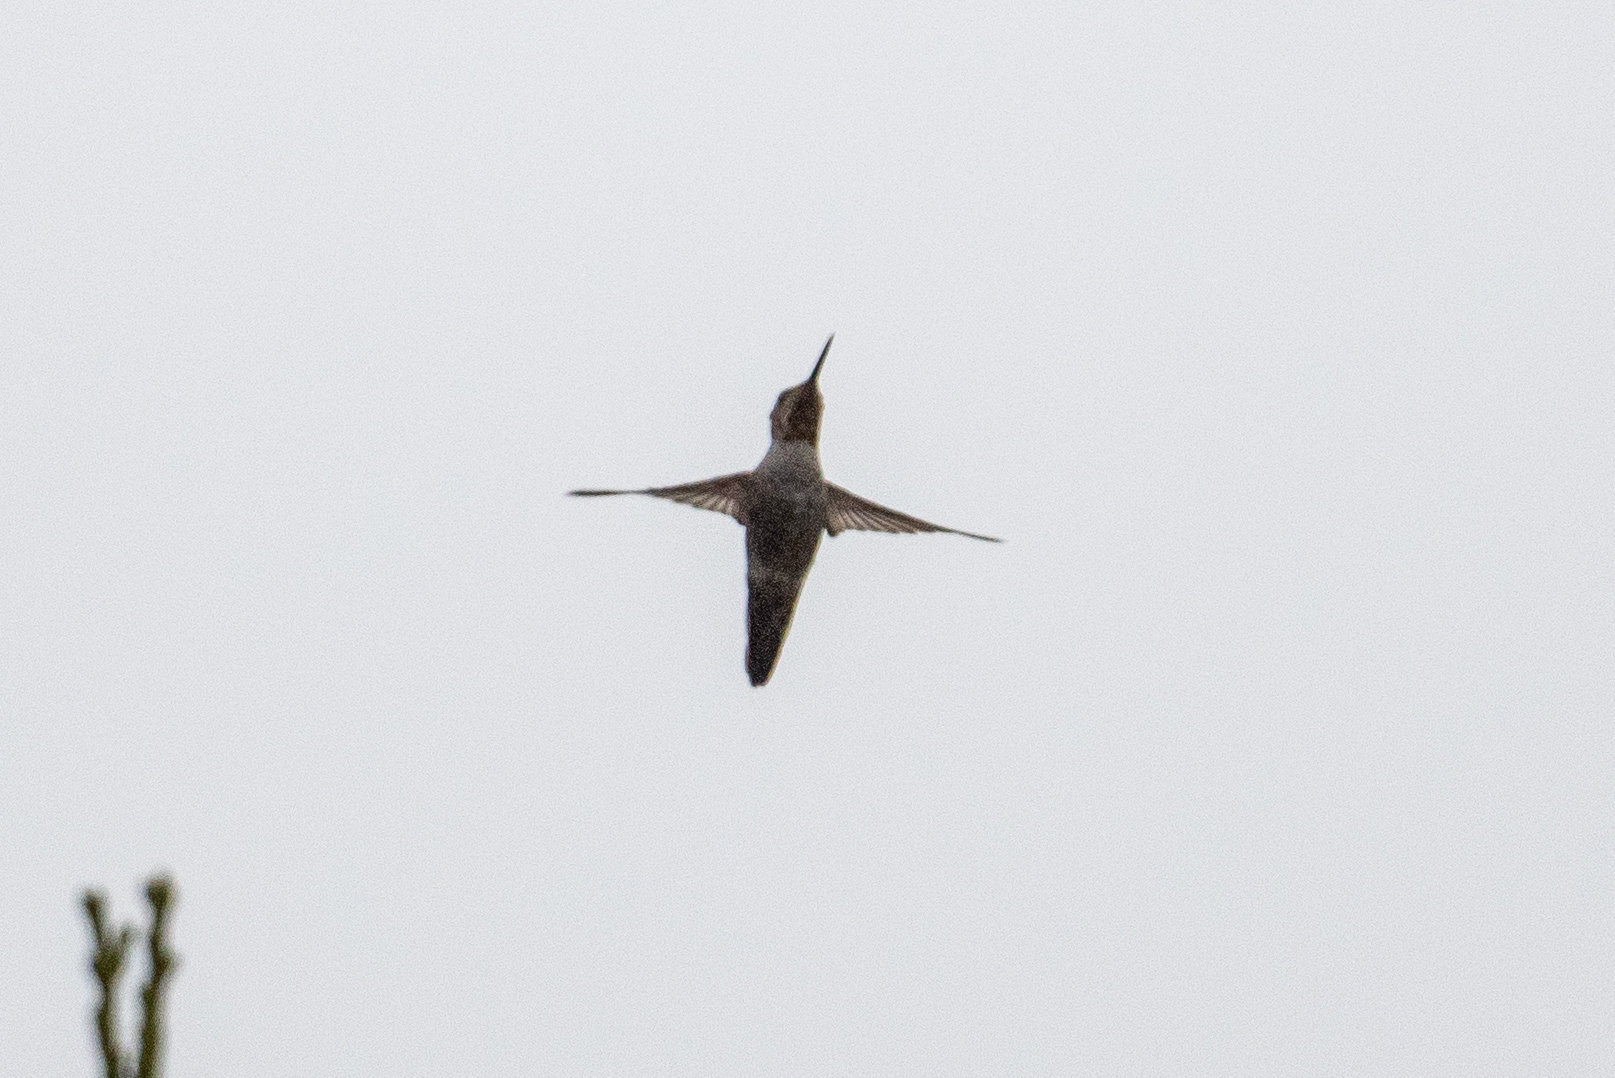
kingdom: Animalia
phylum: Chordata
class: Aves
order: Apodiformes
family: Trochilidae
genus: Calypte
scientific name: Calypte anna
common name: Anna's hummingbird
